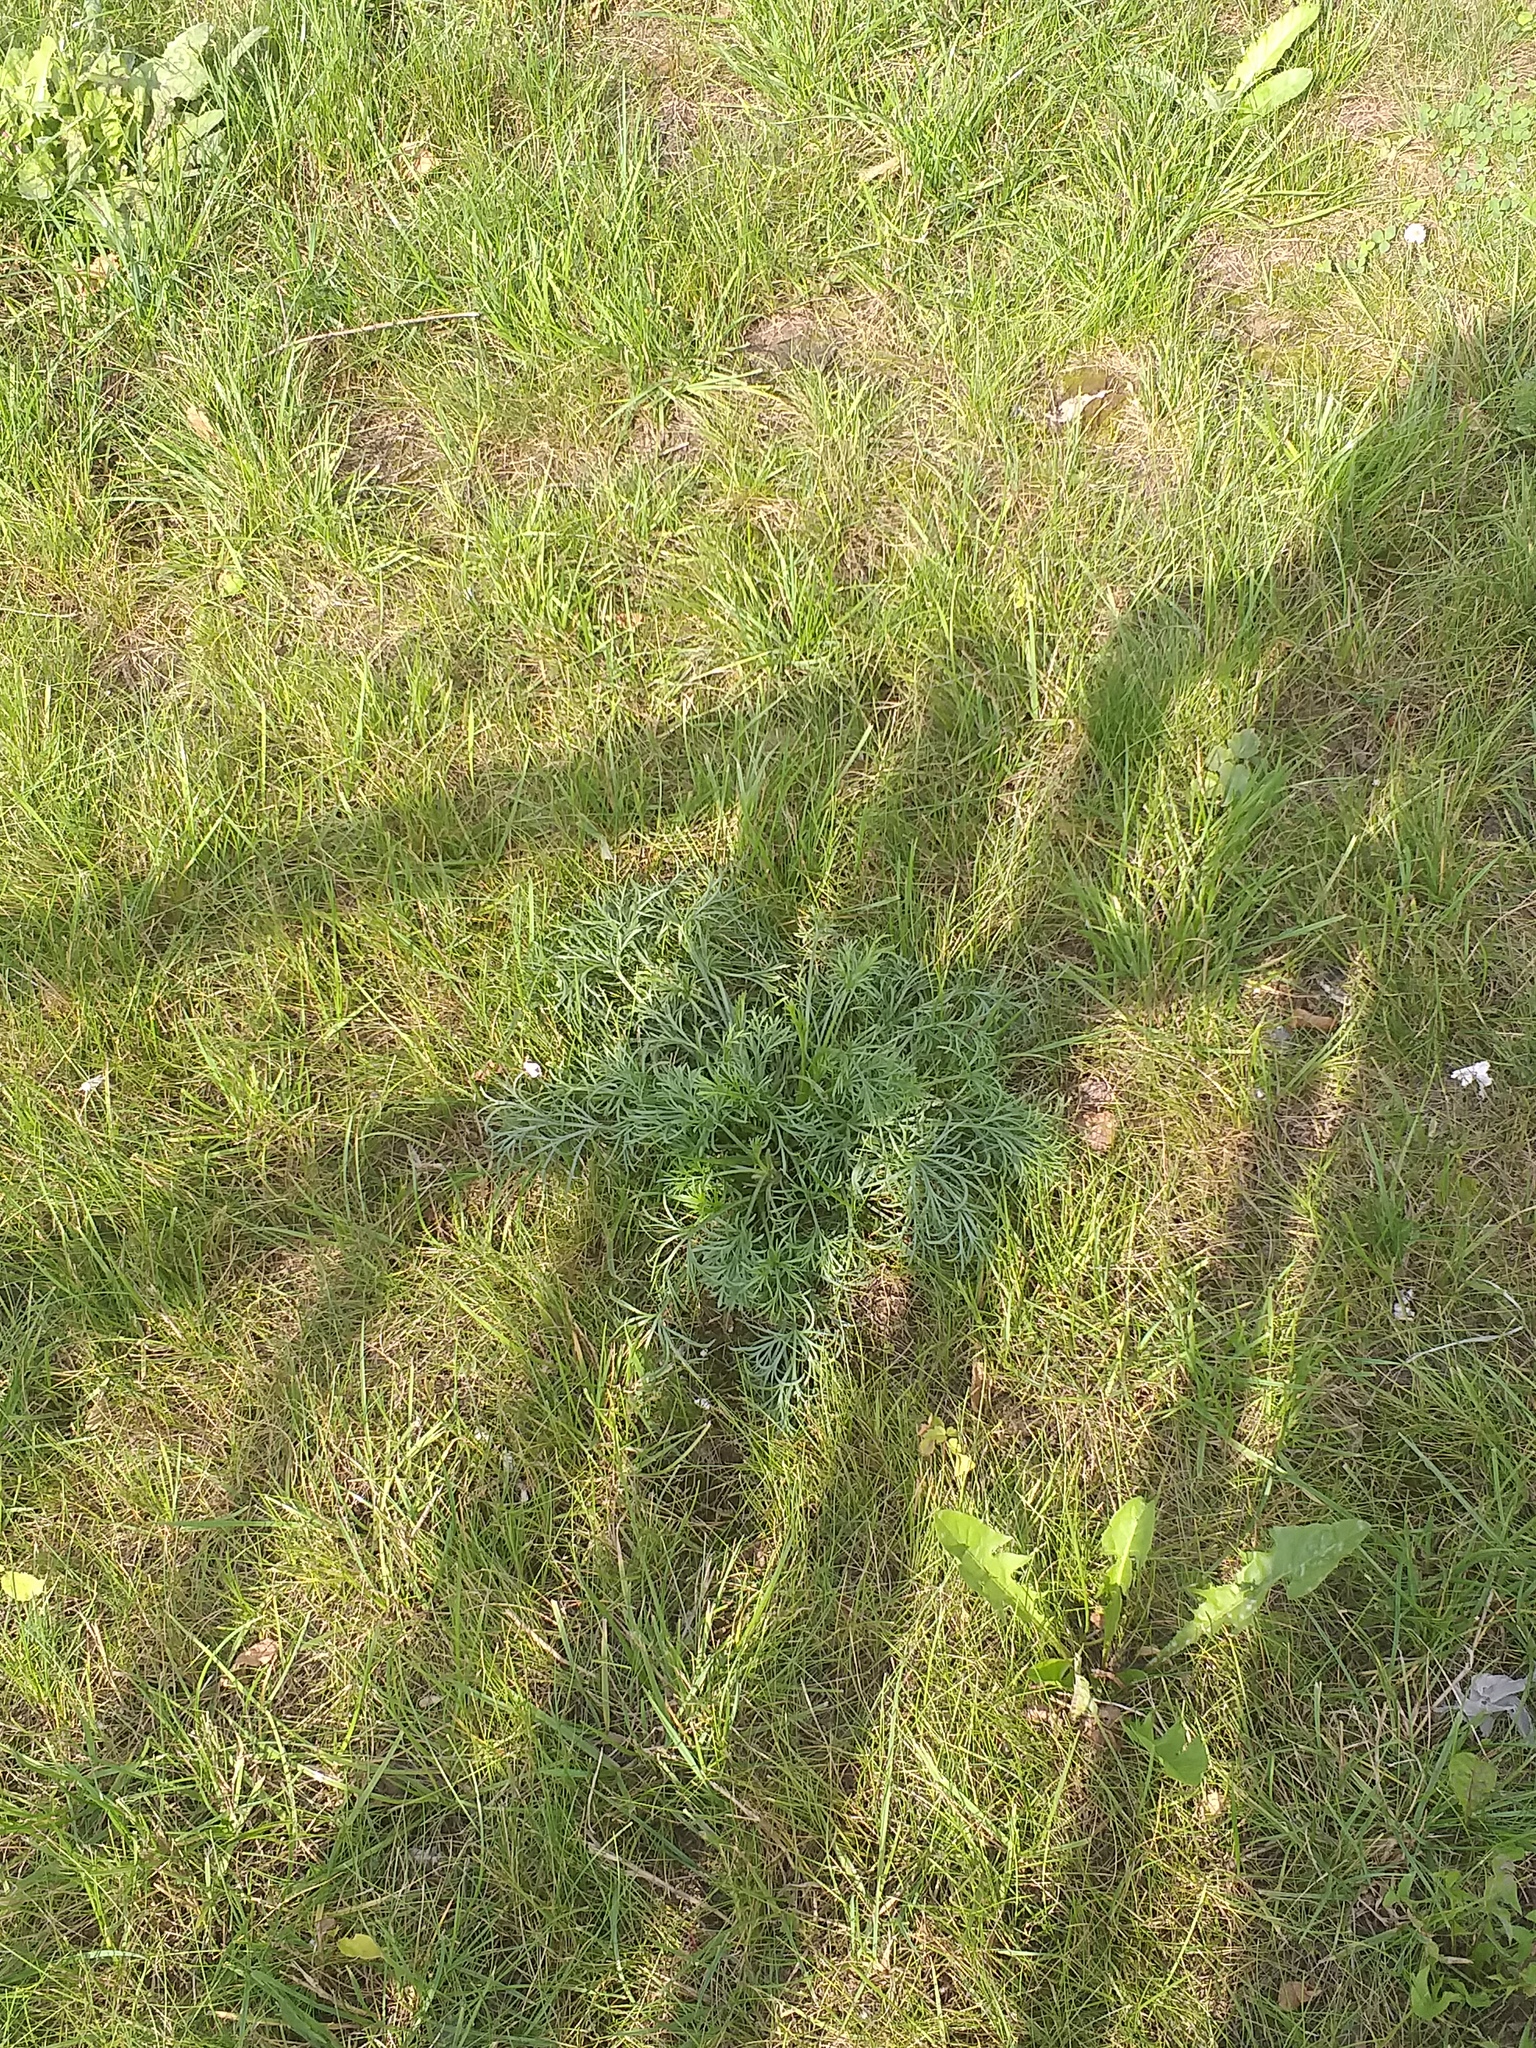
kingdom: Plantae
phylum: Tracheophyta
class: Magnoliopsida
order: Asterales
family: Asteraceae
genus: Artemisia
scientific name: Artemisia campestris
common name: Field wormwood
